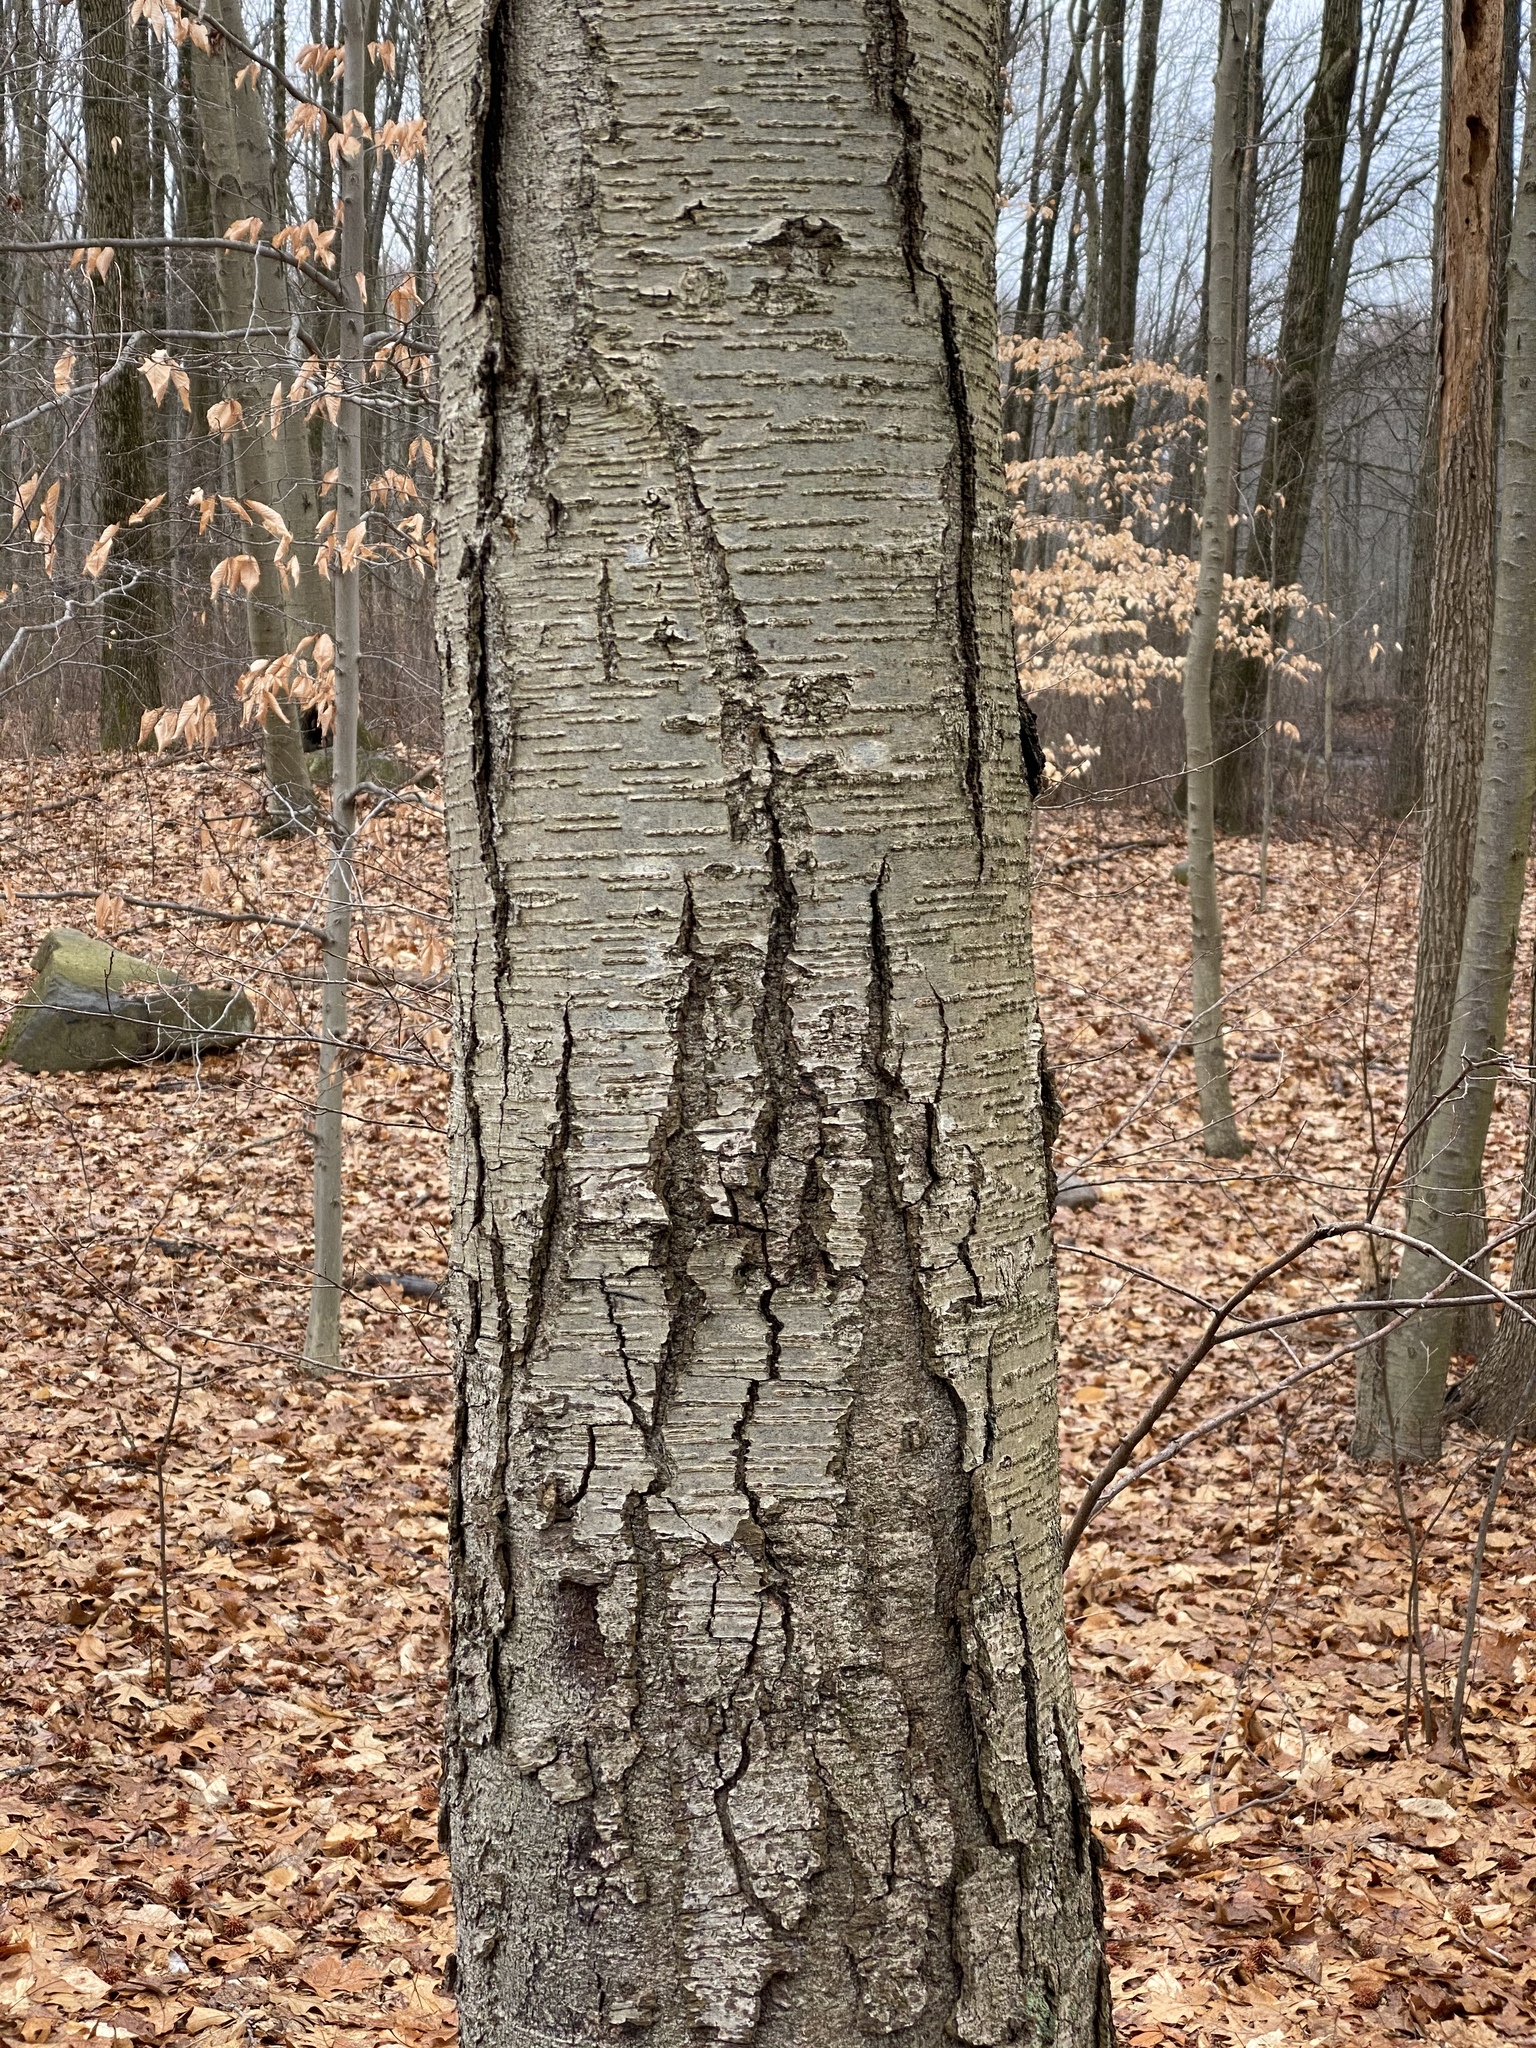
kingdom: Plantae
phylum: Tracheophyta
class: Magnoliopsida
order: Fagales
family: Betulaceae
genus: Betula
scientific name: Betula lenta
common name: Black birch
